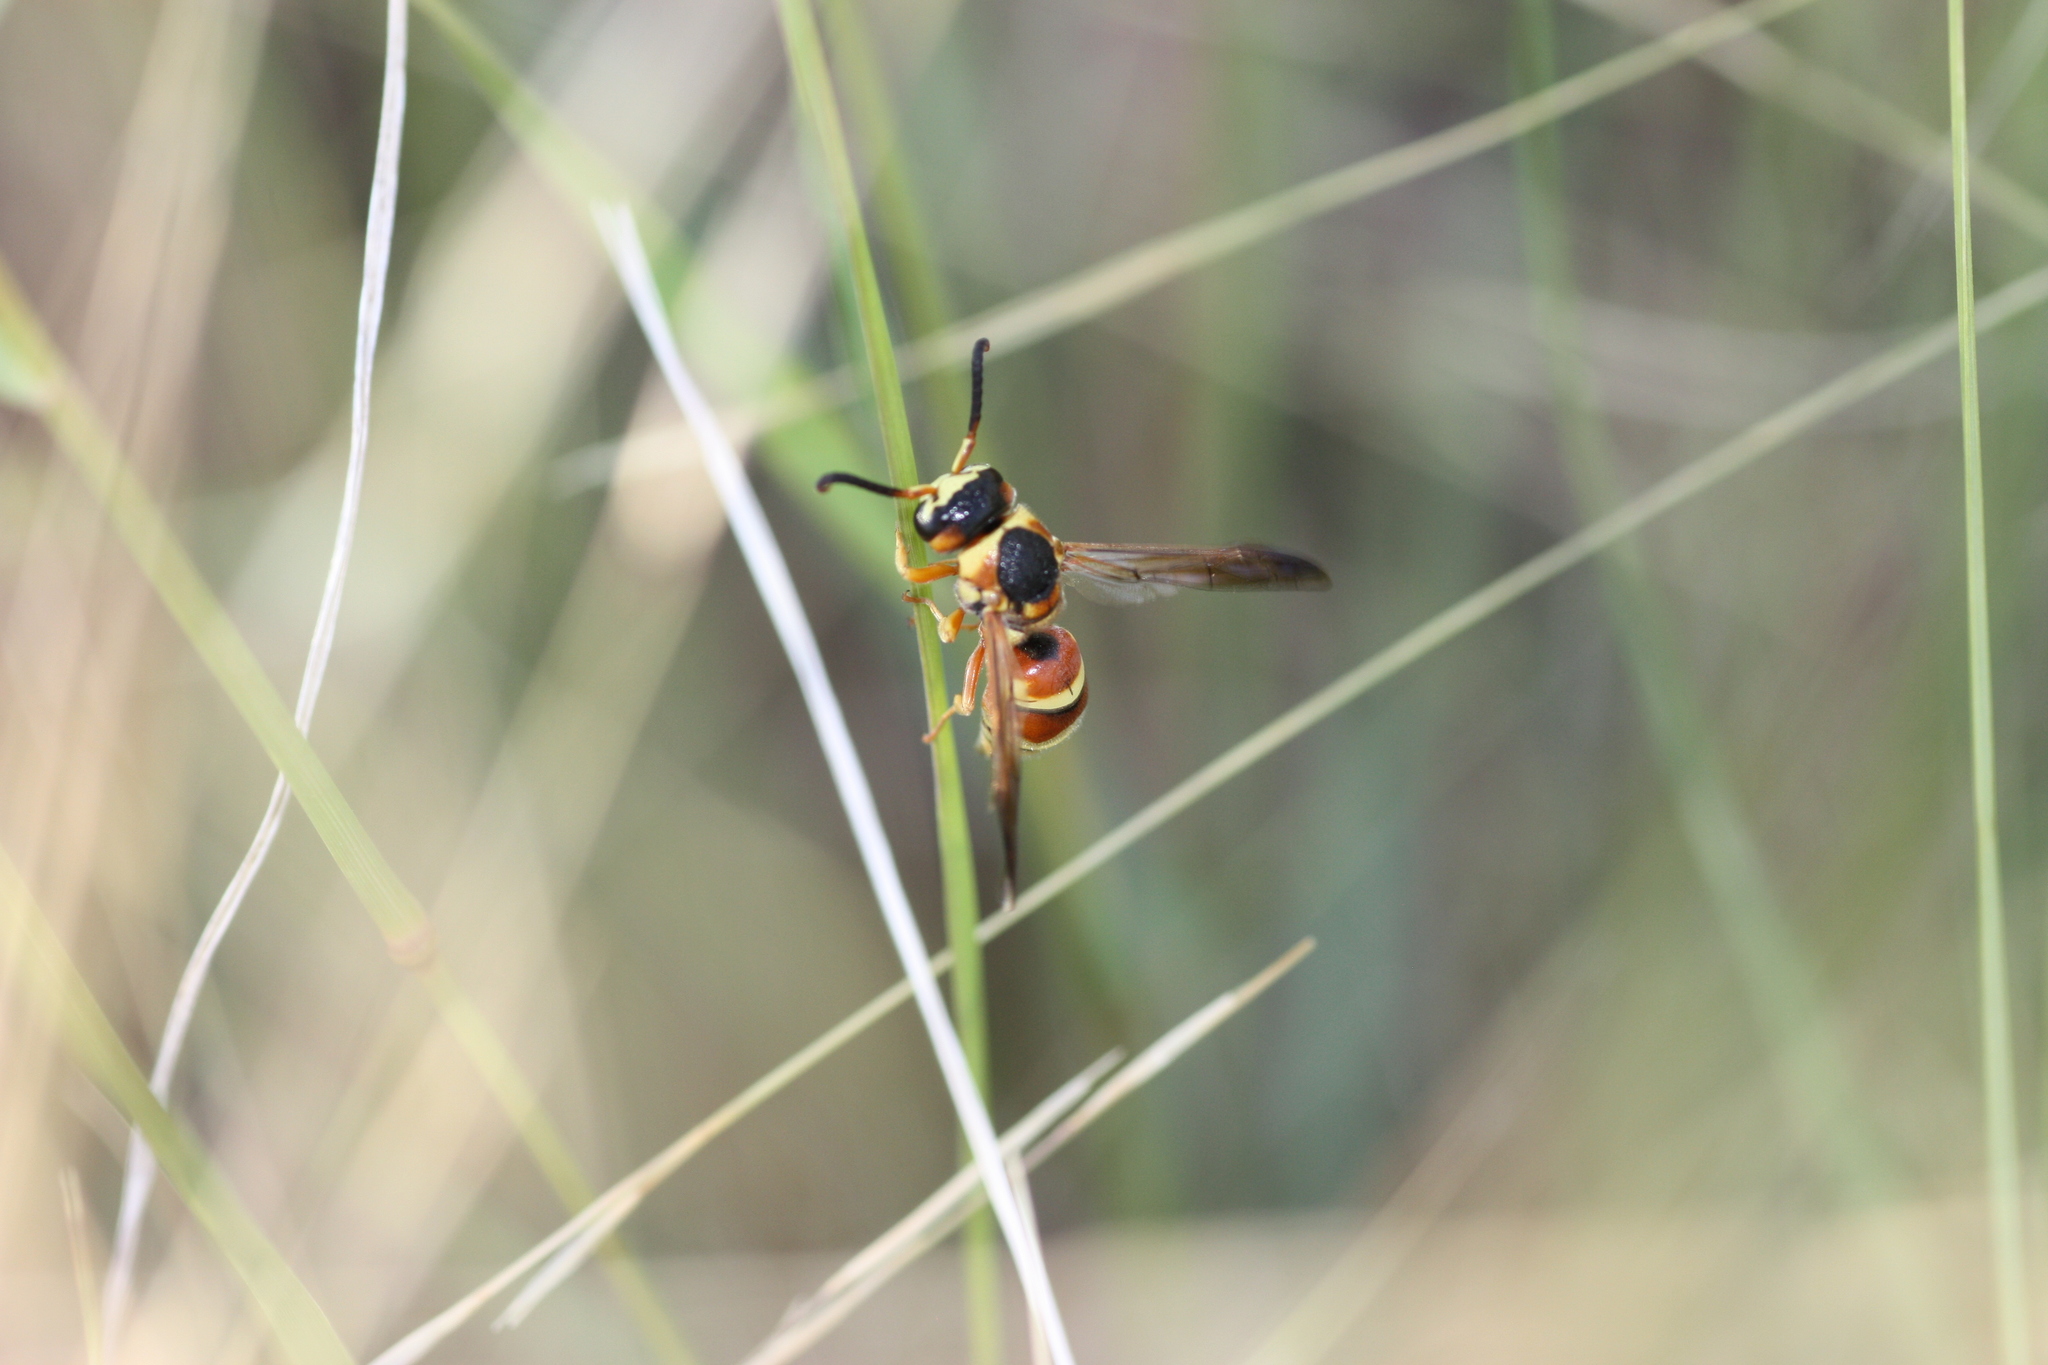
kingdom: Animalia
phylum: Arthropoda
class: Insecta
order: Hymenoptera
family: Eumenidae
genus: Euodynerus
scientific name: Euodynerus
